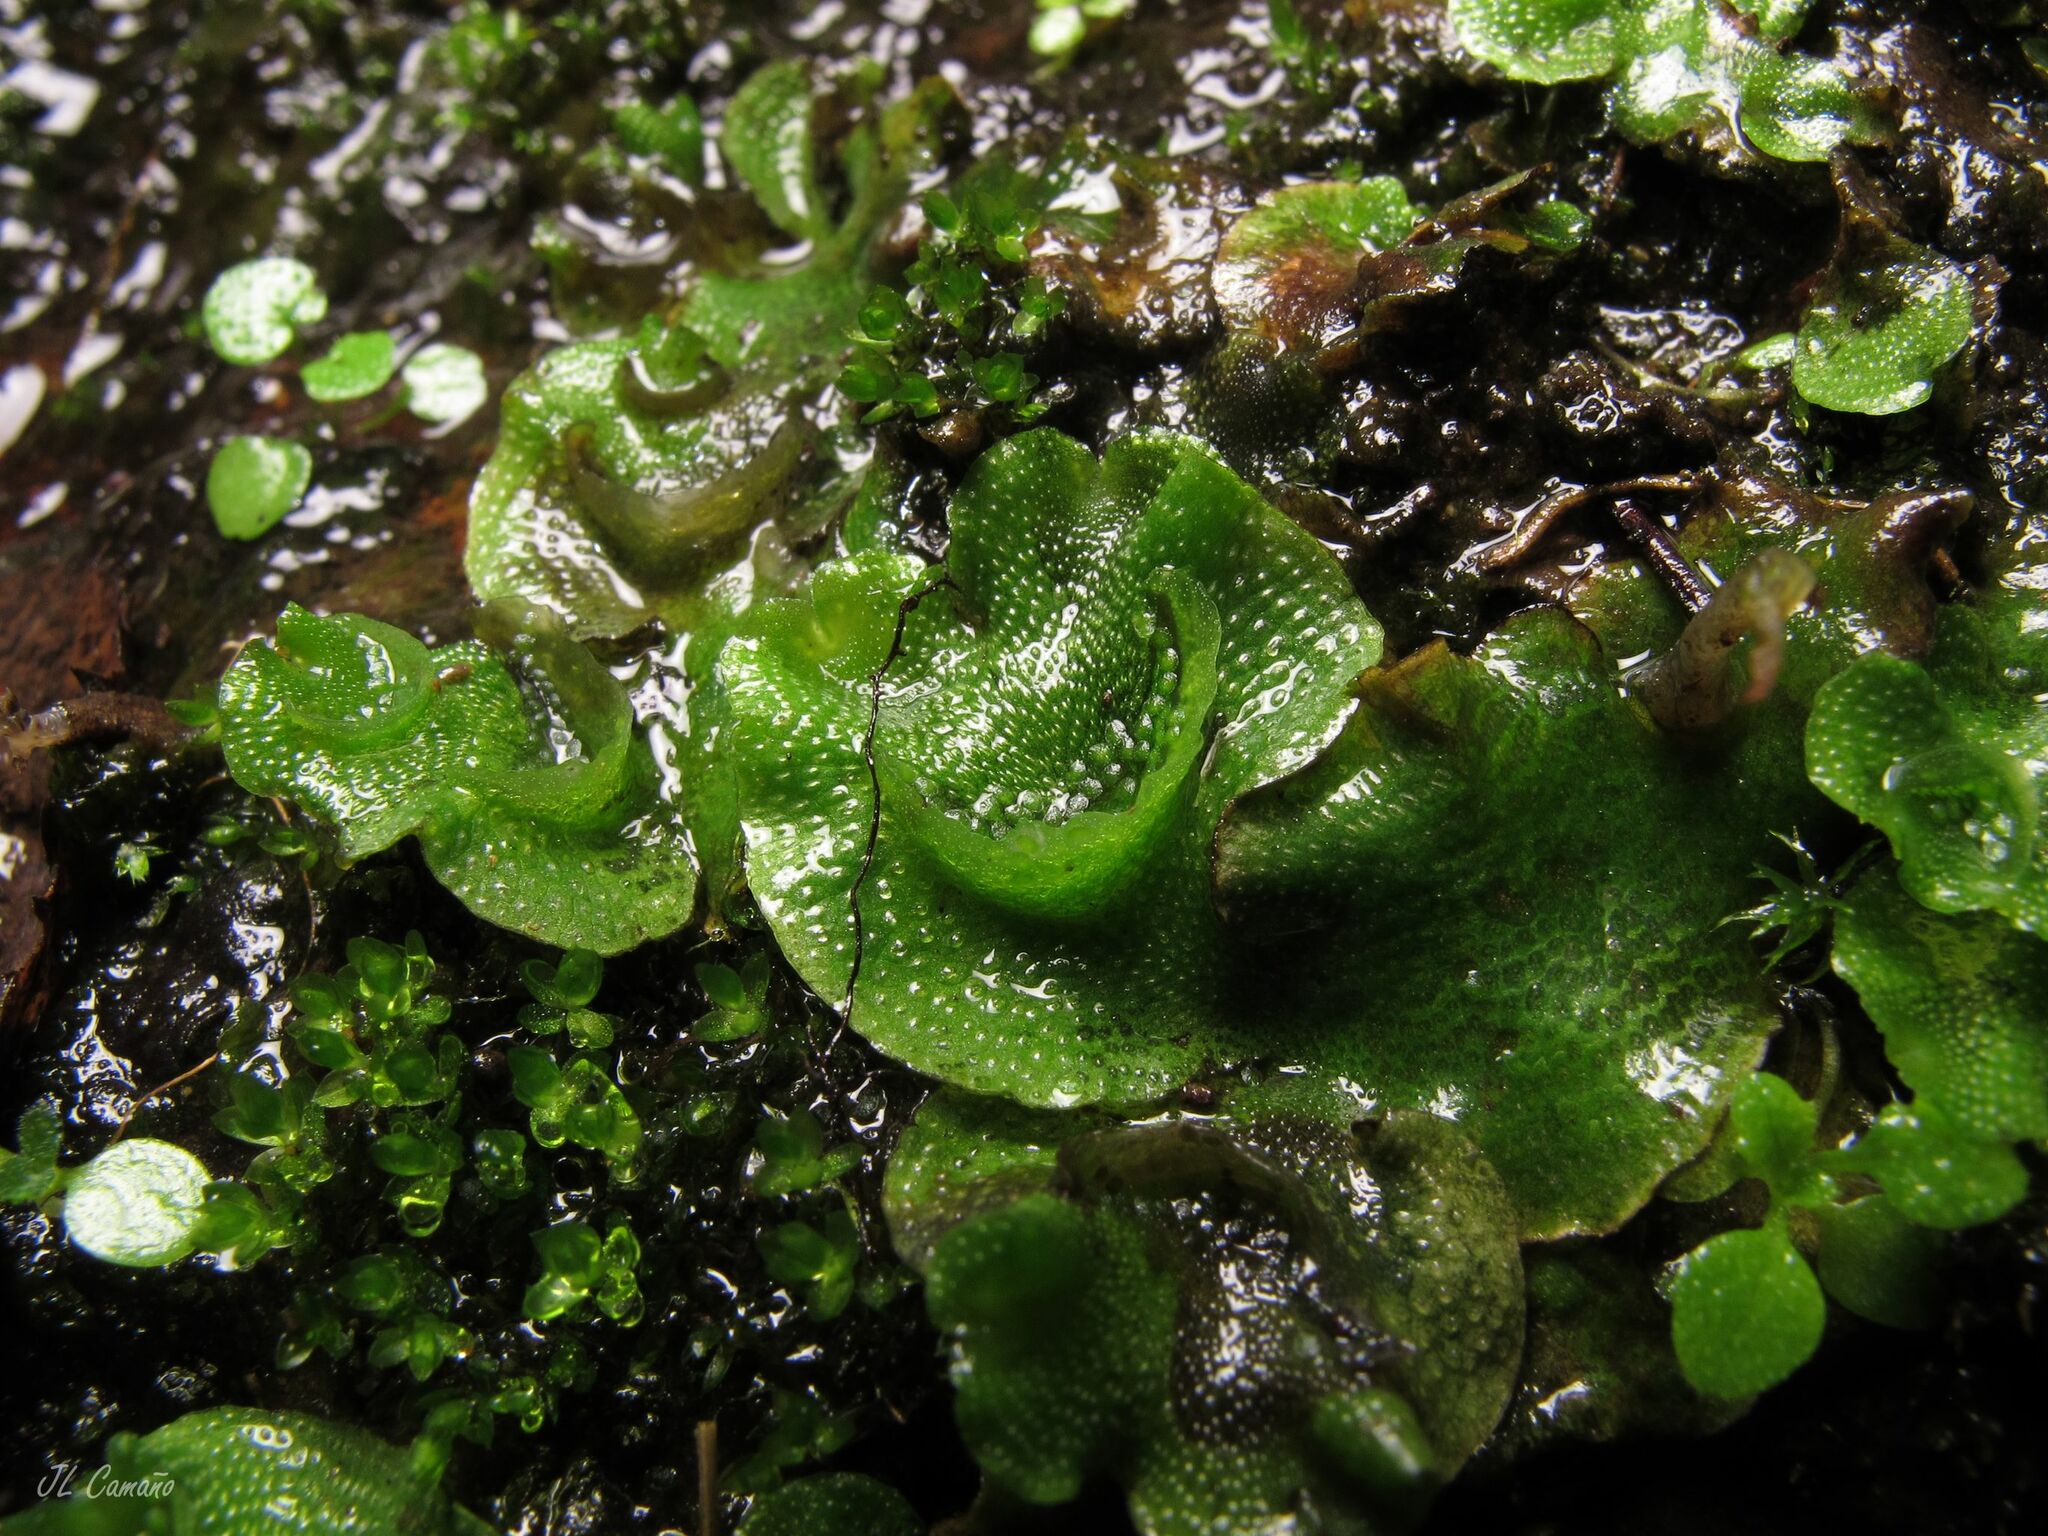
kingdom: Plantae
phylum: Marchantiophyta
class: Marchantiopsida
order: Lunulariales
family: Lunulariaceae
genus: Lunularia
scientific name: Lunularia cruciata
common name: Crescent-cup liverwort
